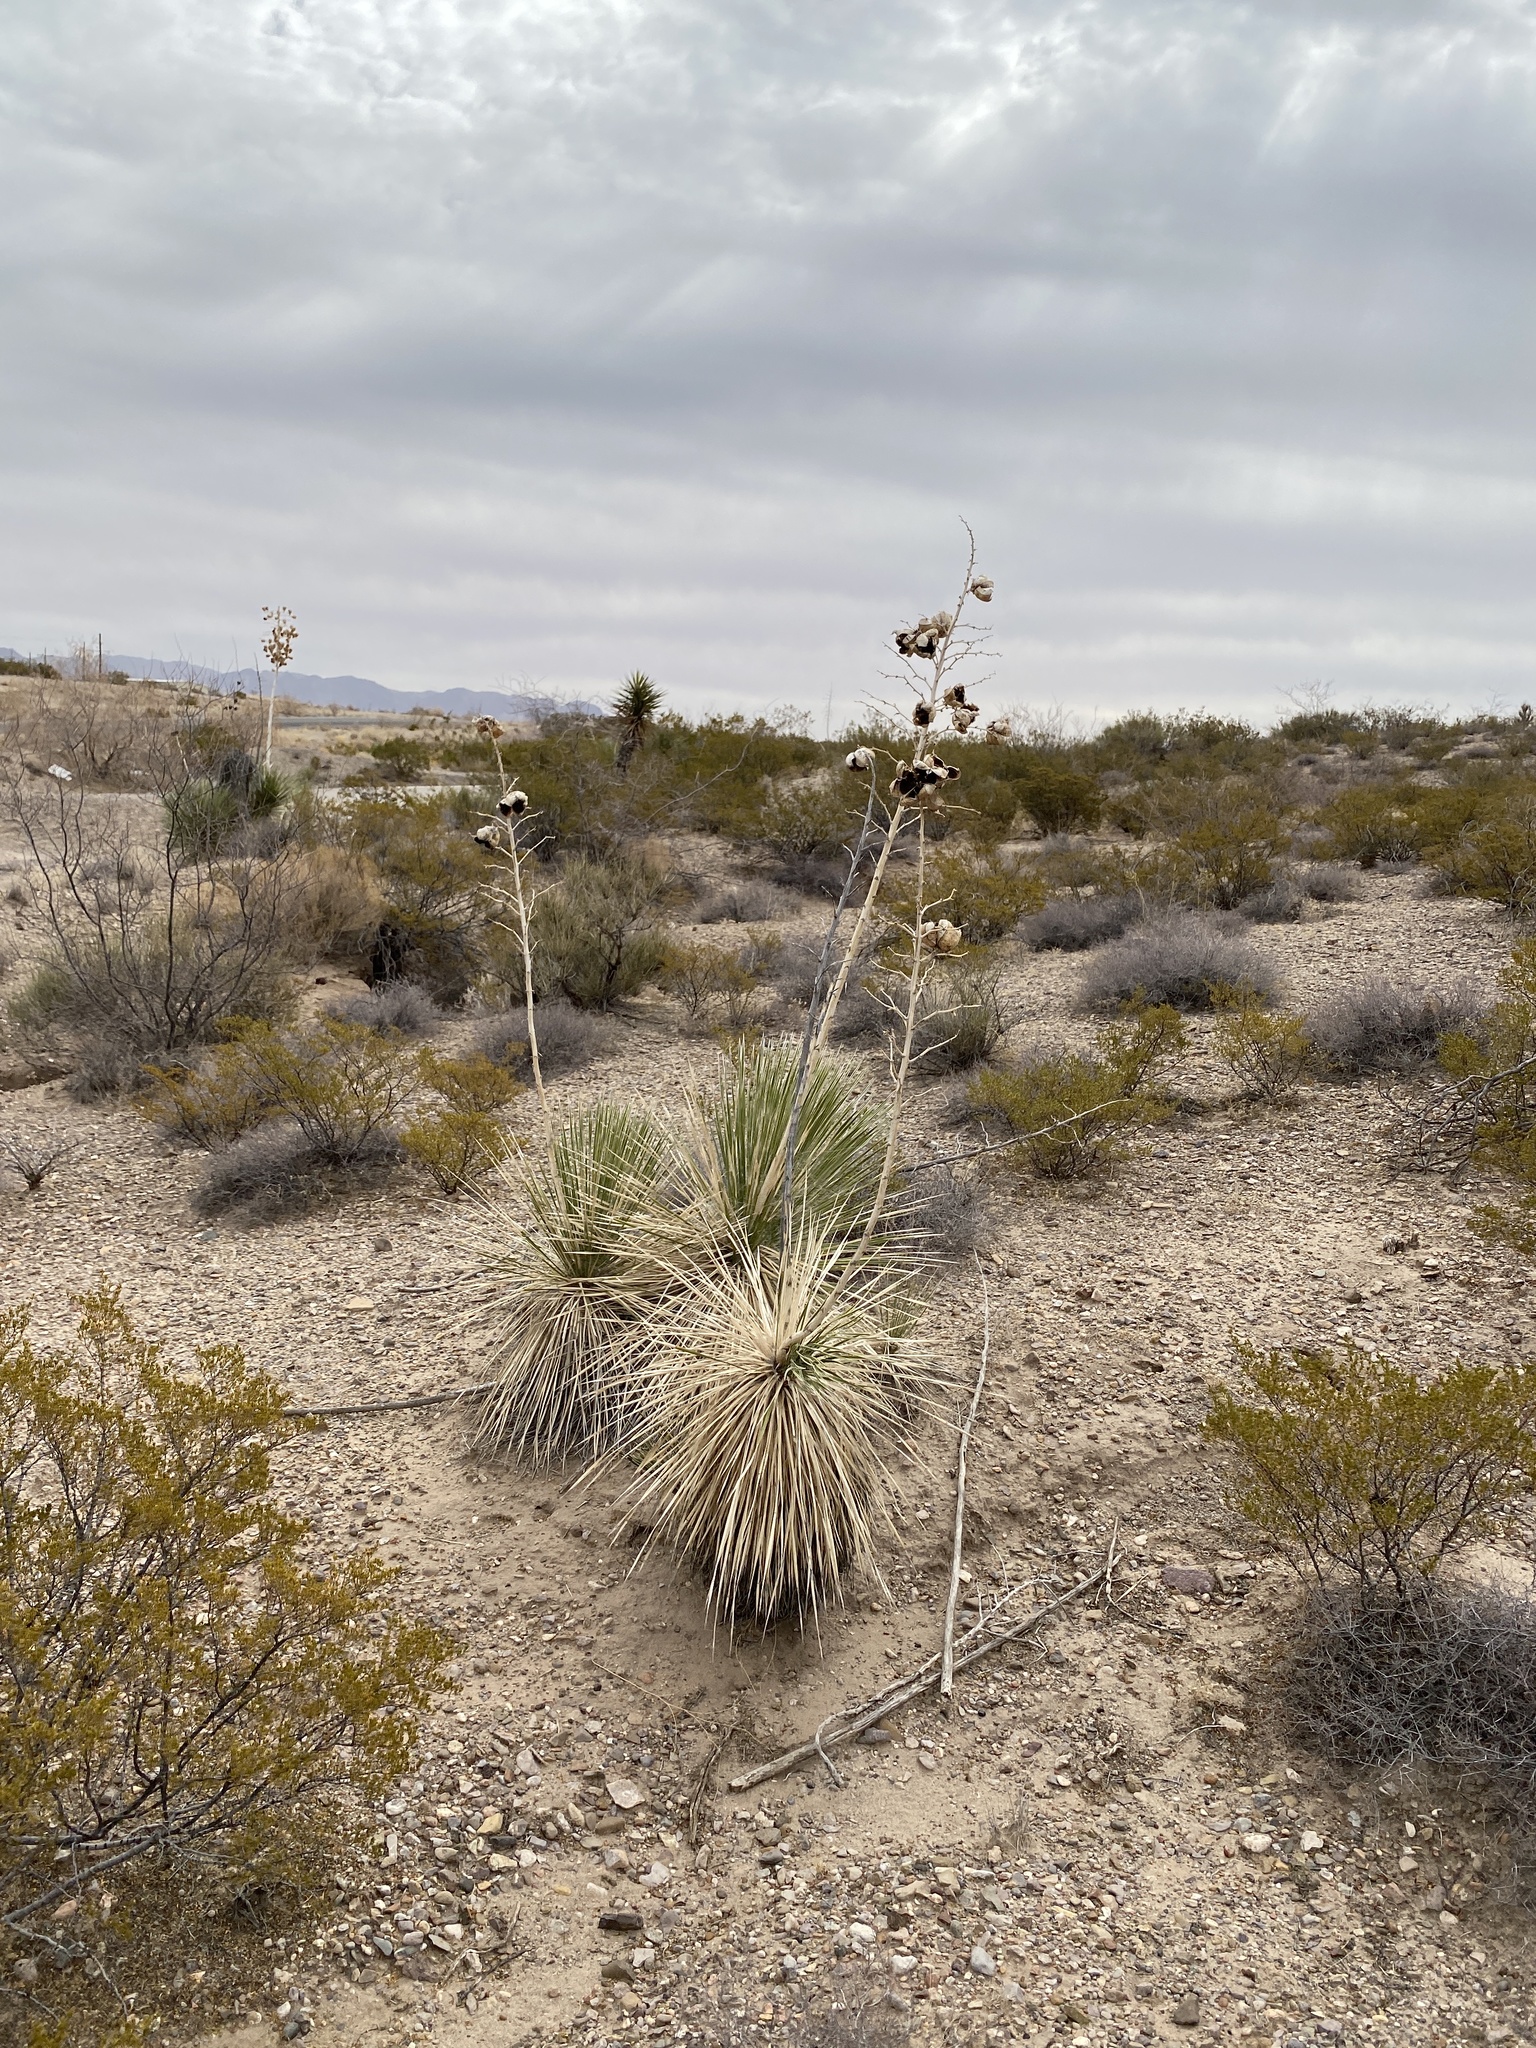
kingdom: Plantae
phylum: Tracheophyta
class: Liliopsida
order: Asparagales
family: Asparagaceae
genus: Yucca
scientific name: Yucca elata
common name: Palmella
